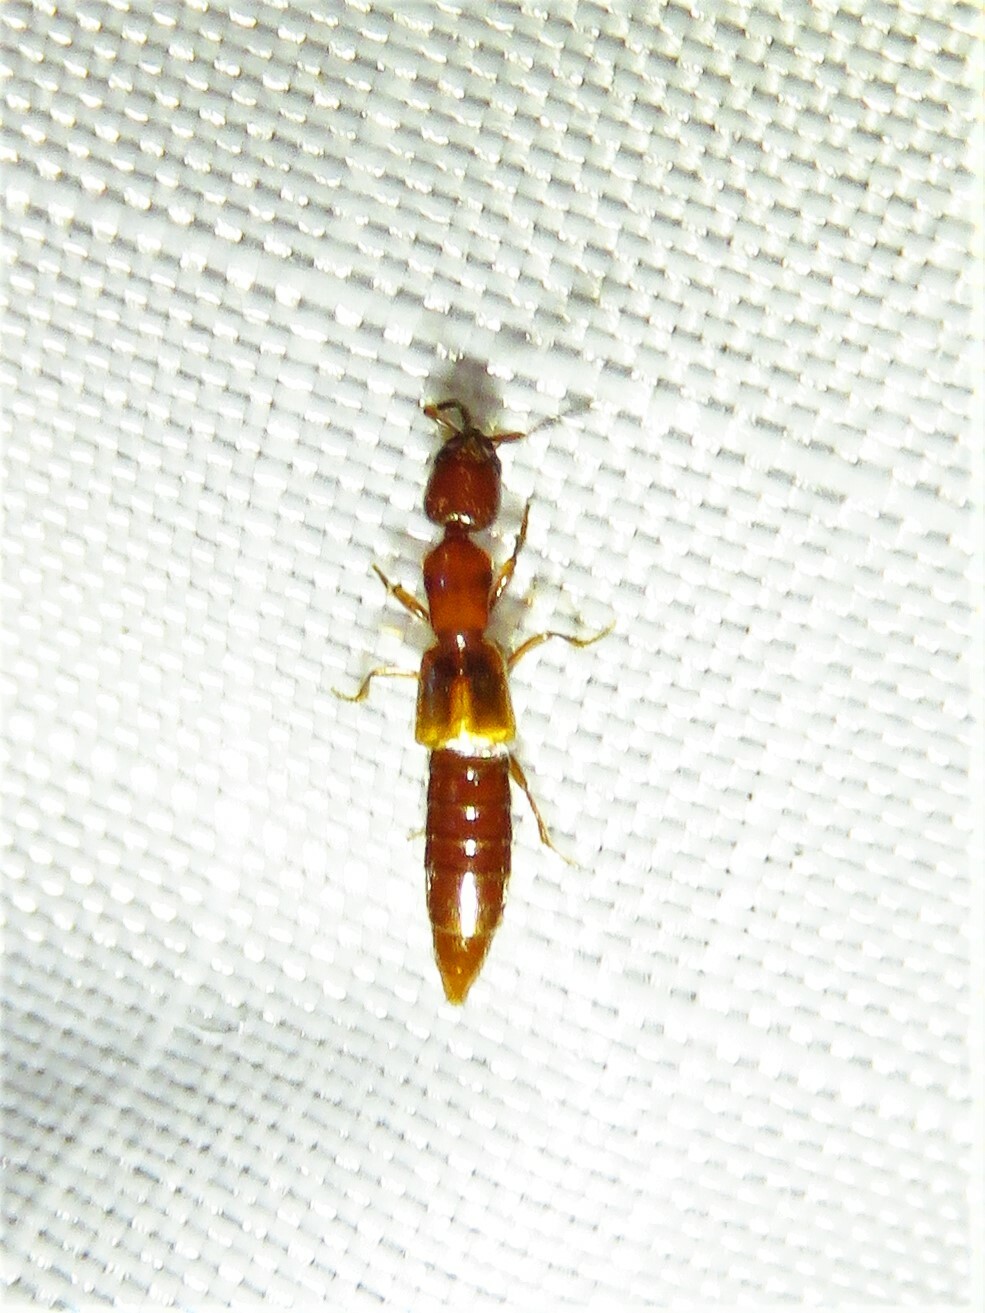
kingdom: Animalia
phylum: Arthropoda
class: Insecta
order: Coleoptera
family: Staphylinidae
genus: Lithocharodes
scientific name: Lithocharodes longicollis
